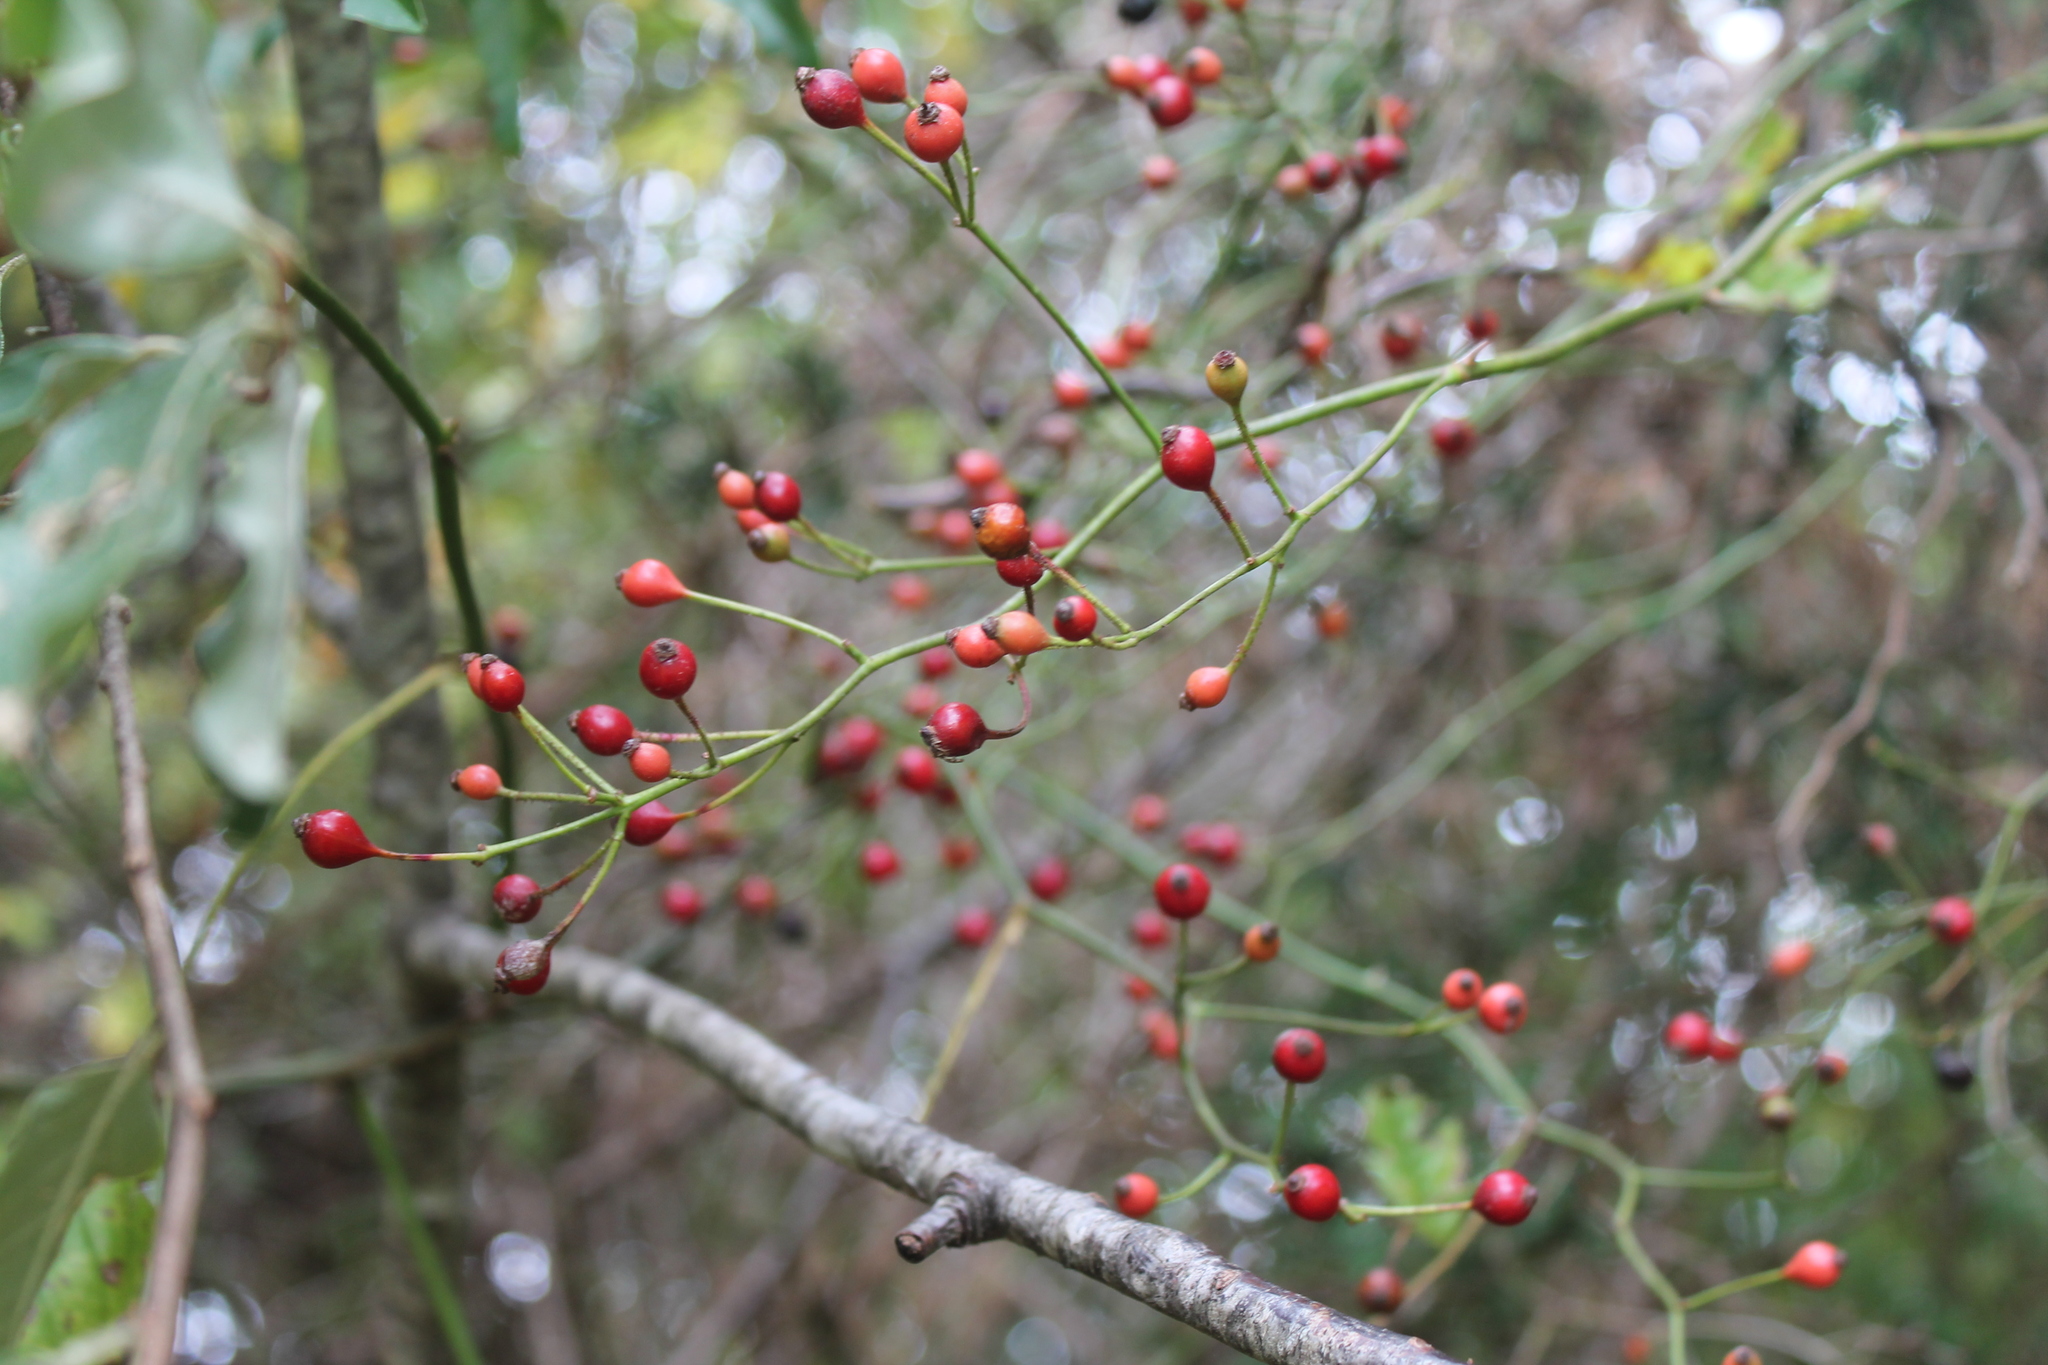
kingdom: Plantae
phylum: Tracheophyta
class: Magnoliopsida
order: Rosales
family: Rosaceae
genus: Rosa
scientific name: Rosa multiflora
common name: Multiflora rose
